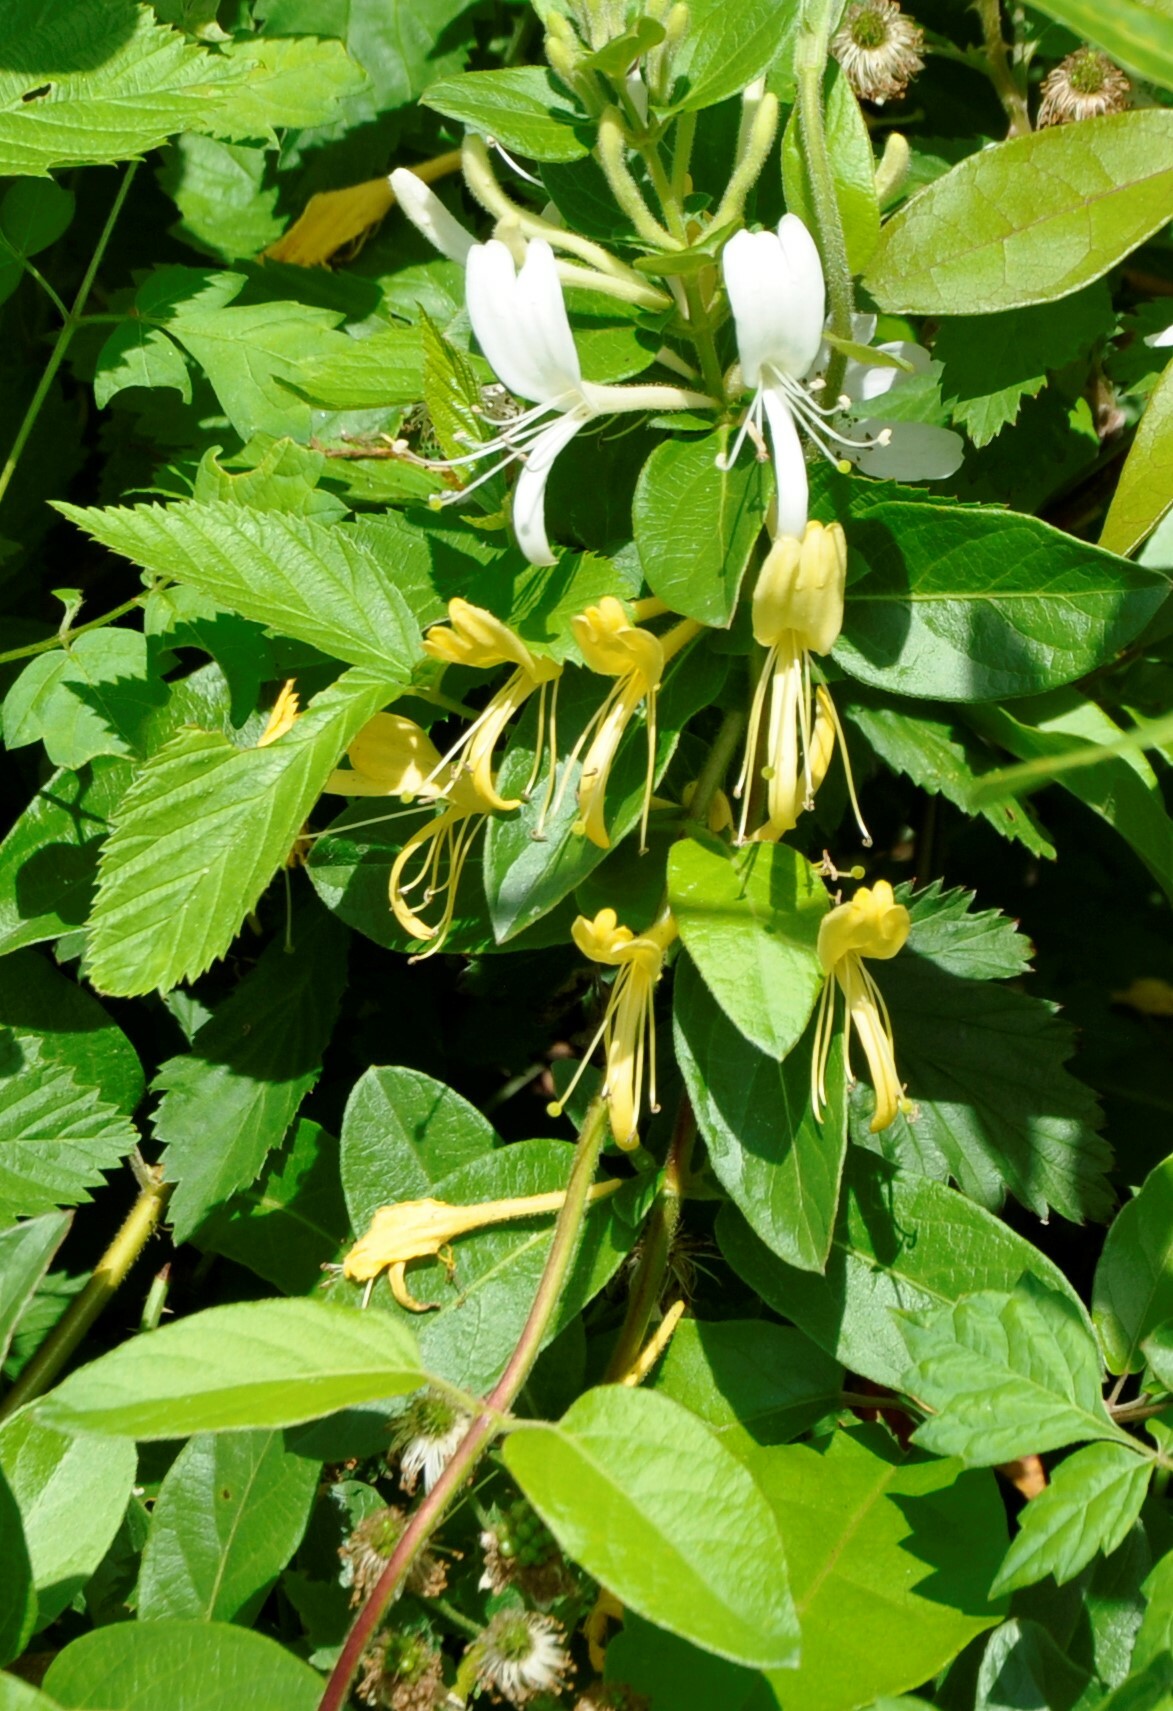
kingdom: Plantae
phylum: Tracheophyta
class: Magnoliopsida
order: Dipsacales
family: Caprifoliaceae
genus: Lonicera
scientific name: Lonicera japonica
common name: Japanese honeysuckle
